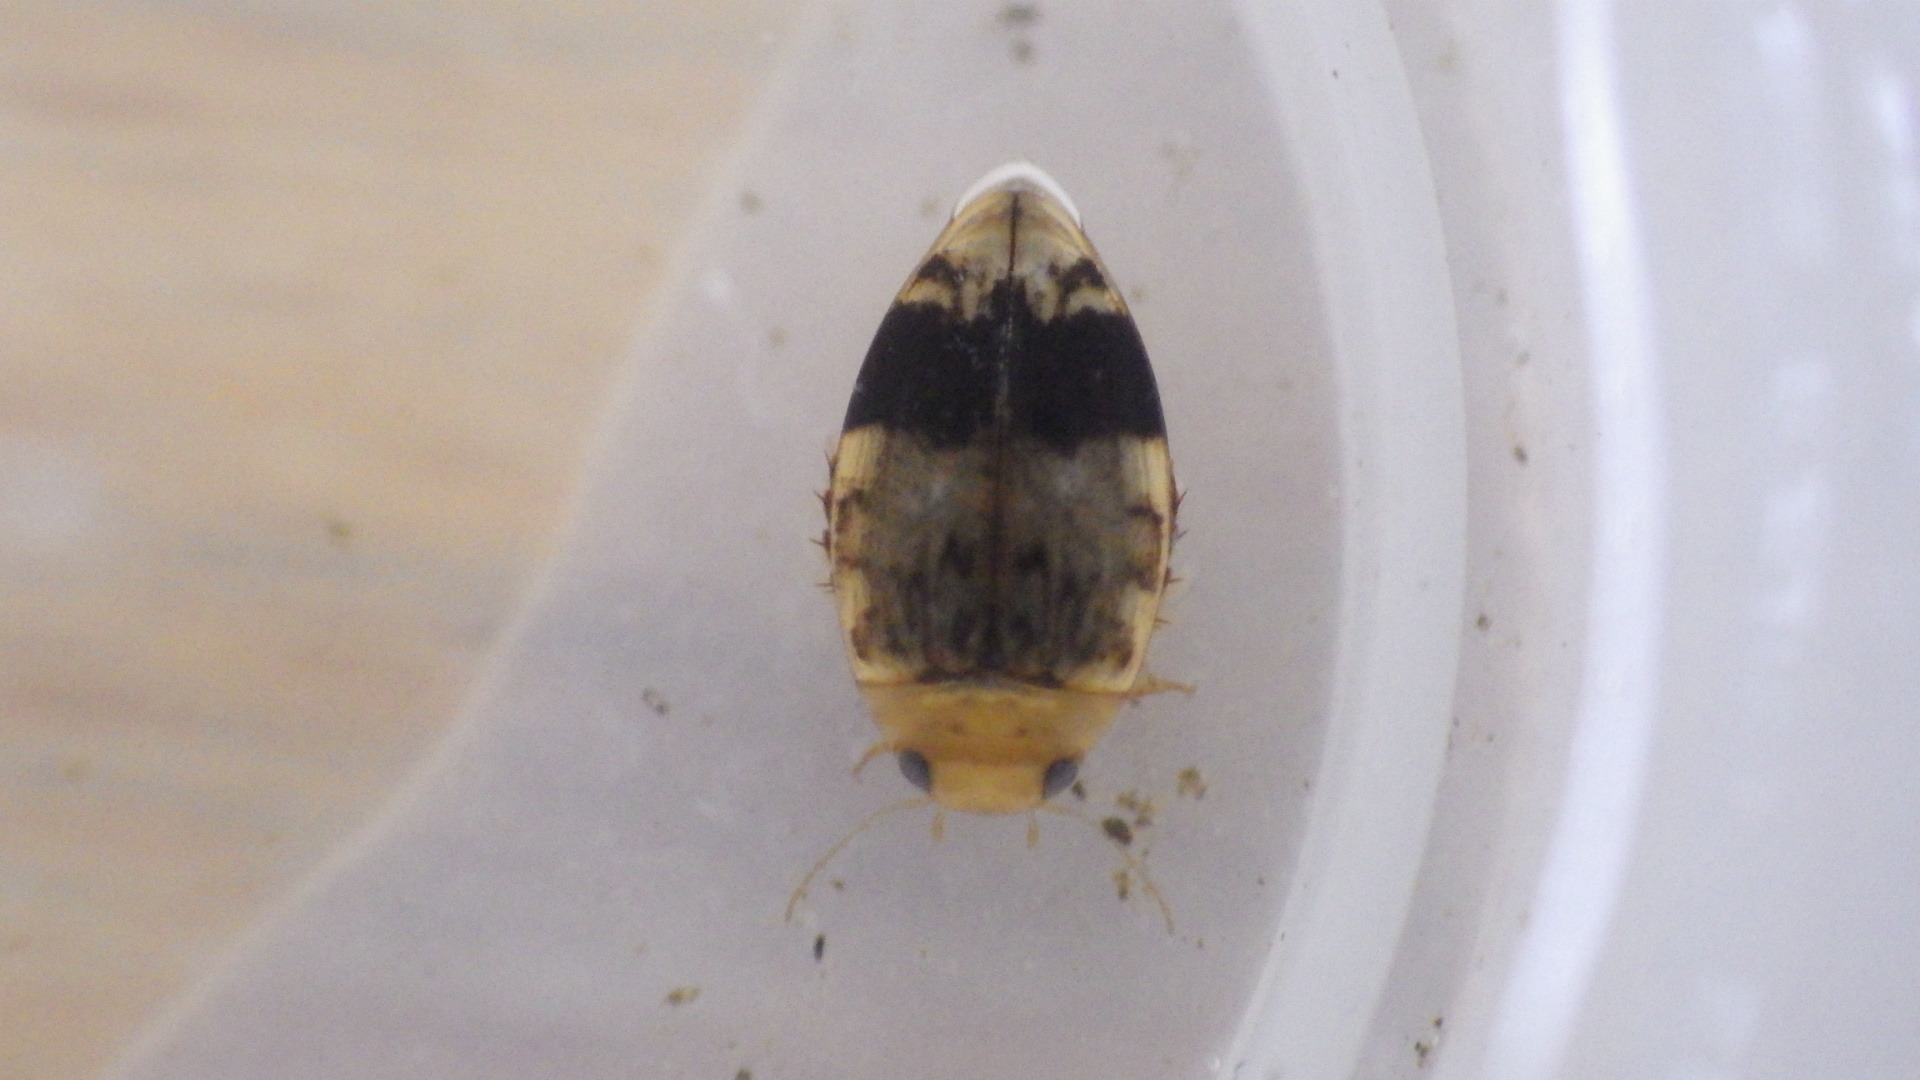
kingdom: Animalia
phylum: Arthropoda
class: Insecta
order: Coleoptera
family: Dytiscidae
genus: Laccophilus
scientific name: Laccophilus fasciatus
